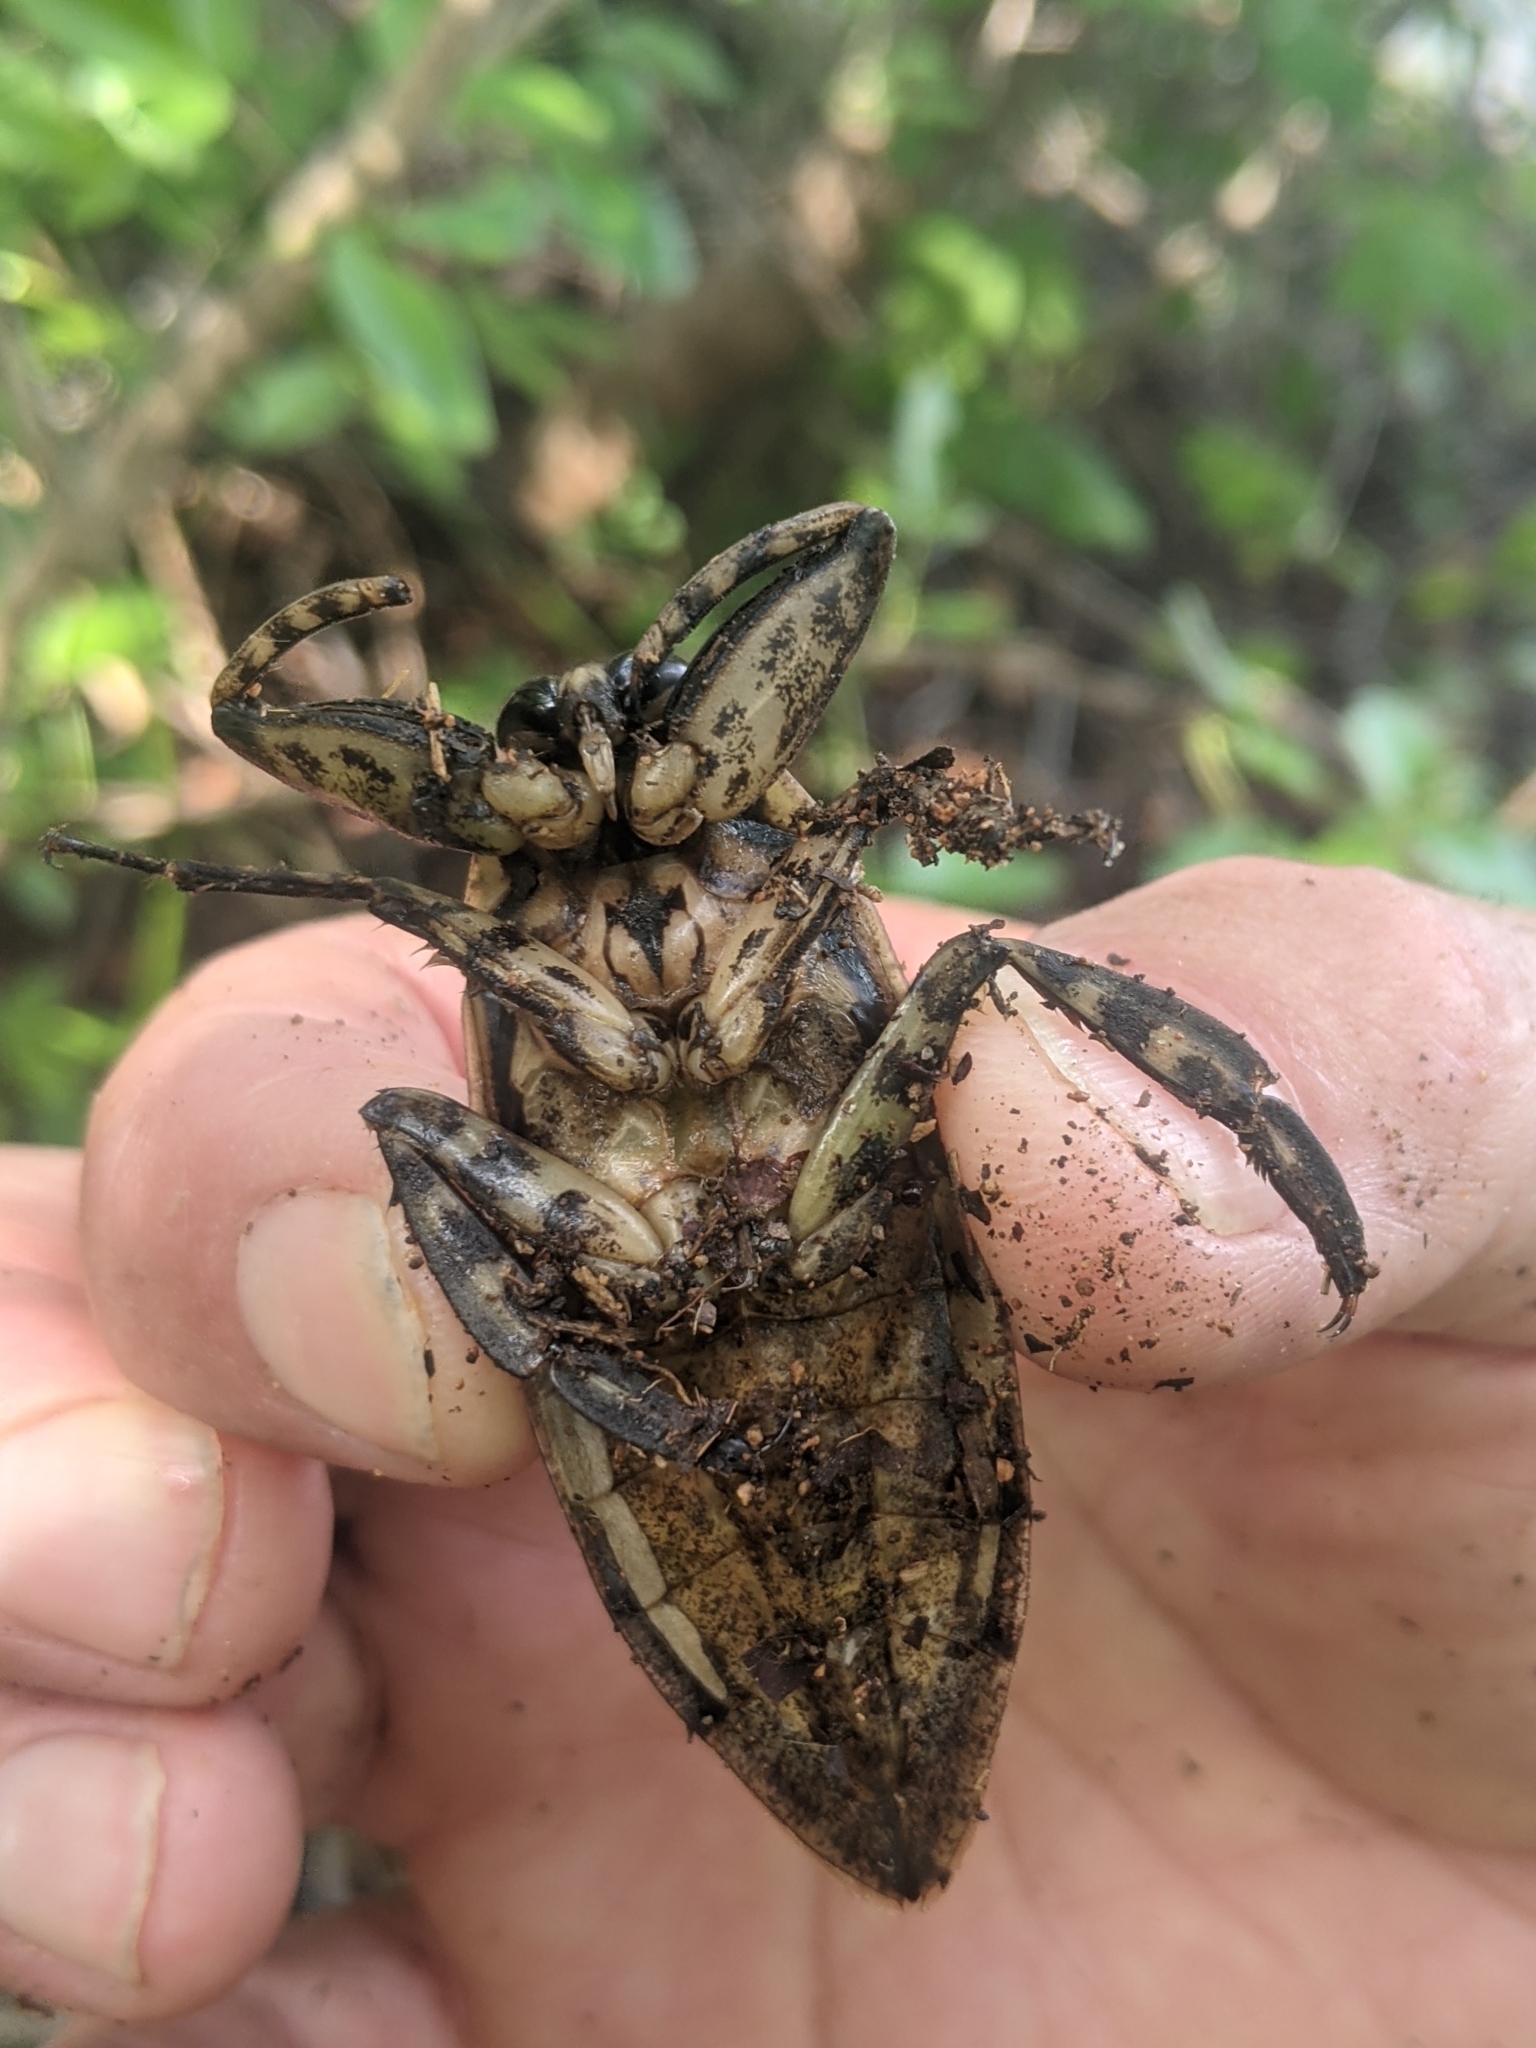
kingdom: Animalia
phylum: Arthropoda
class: Insecta
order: Hemiptera
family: Belostomatidae
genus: Lethocerus
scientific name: Lethocerus medius
